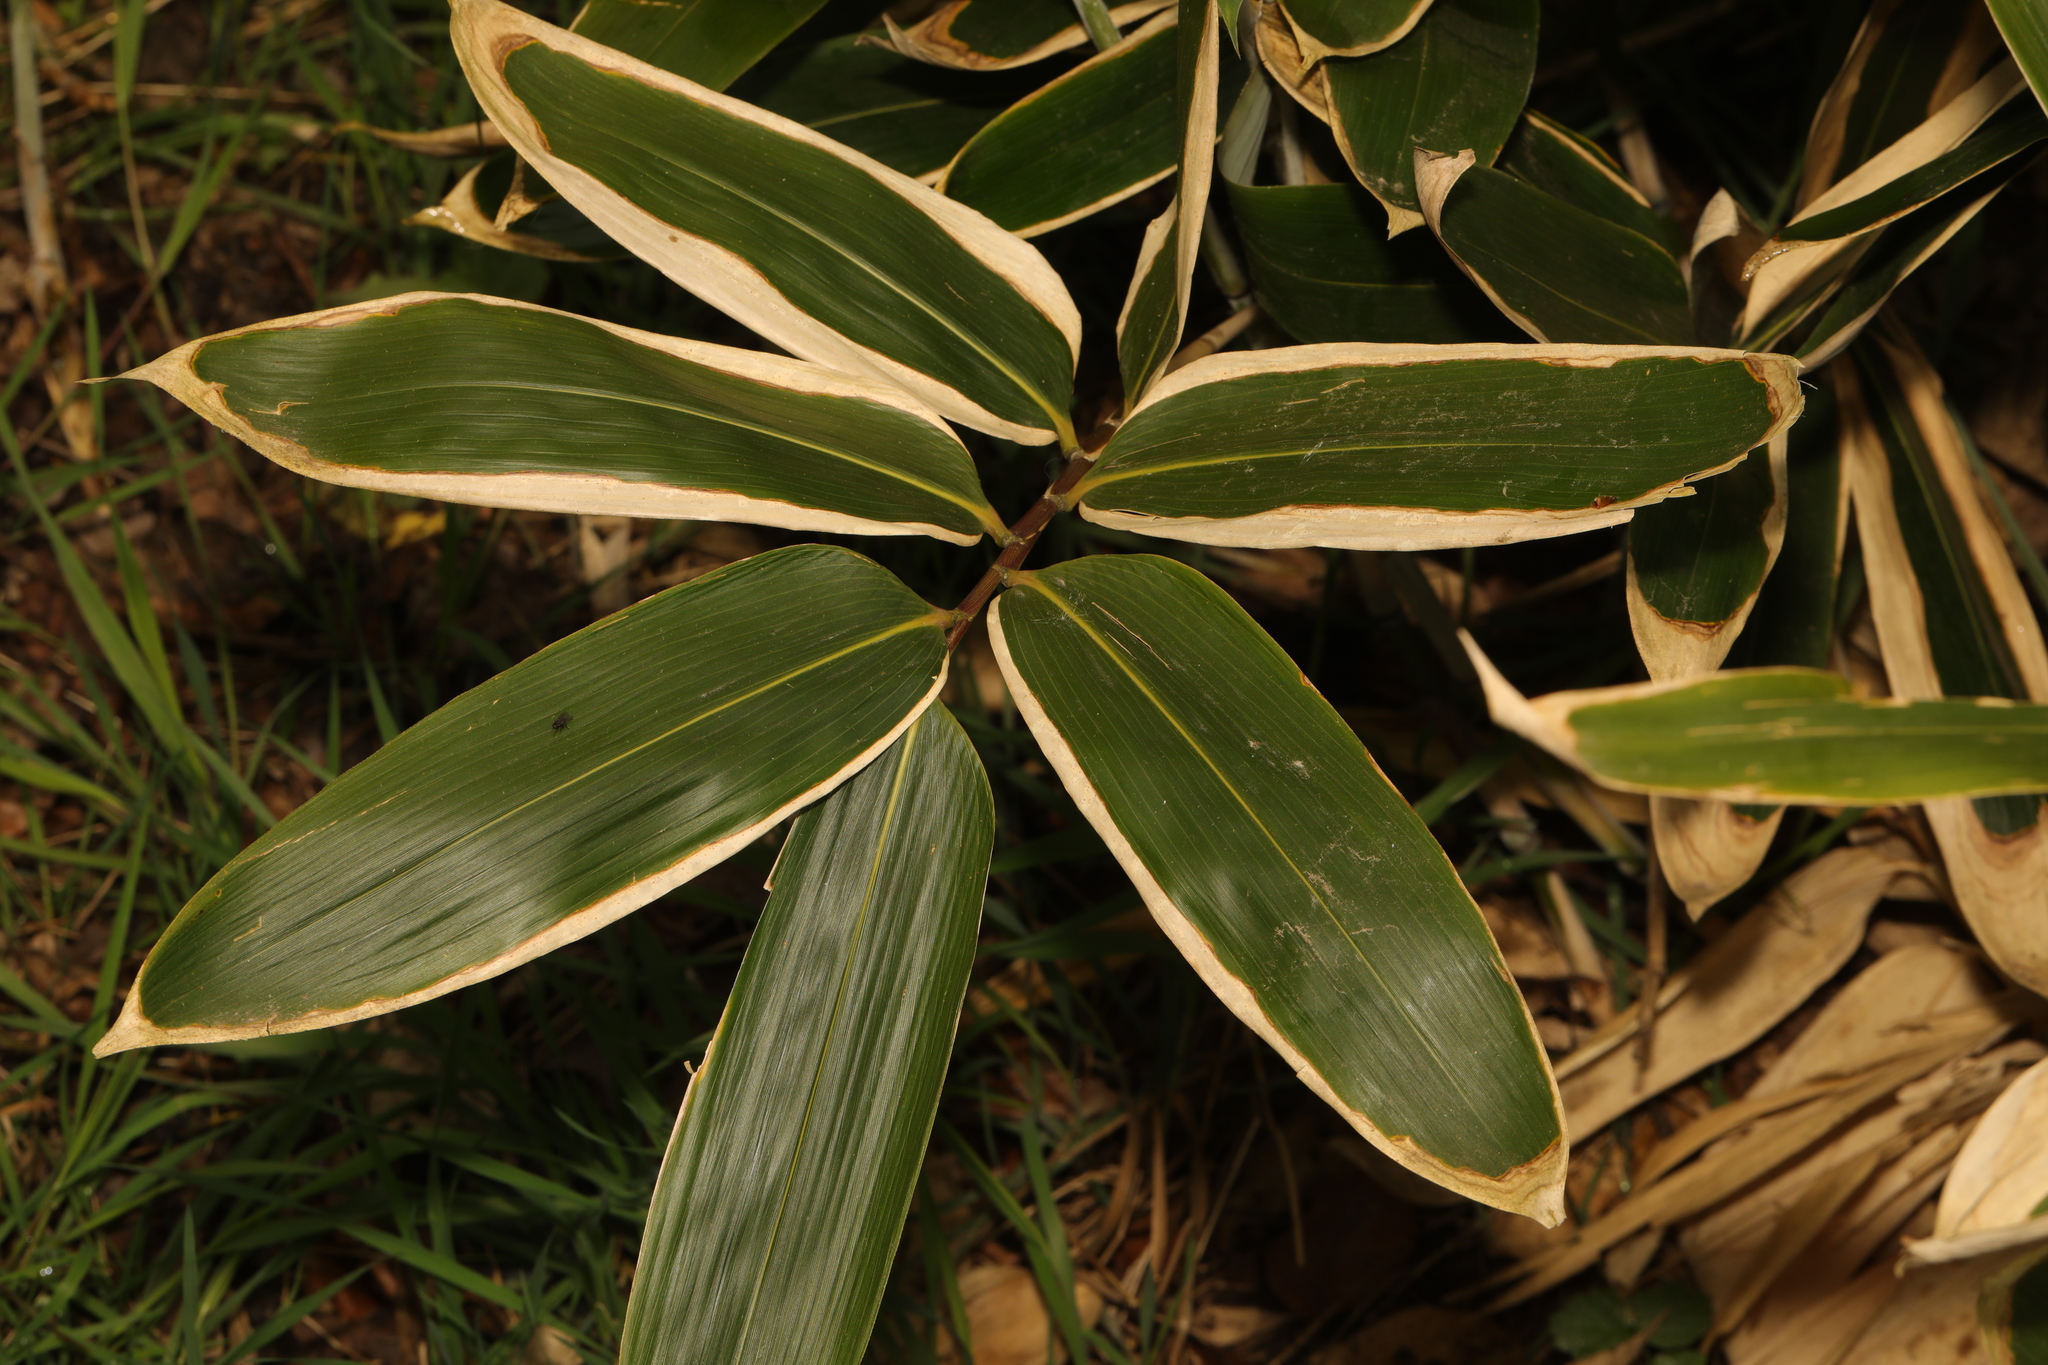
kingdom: Plantae
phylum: Tracheophyta
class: Liliopsida
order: Poales
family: Poaceae
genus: Sasa
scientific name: Sasa palmata
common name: Broad-leaved bamboo
